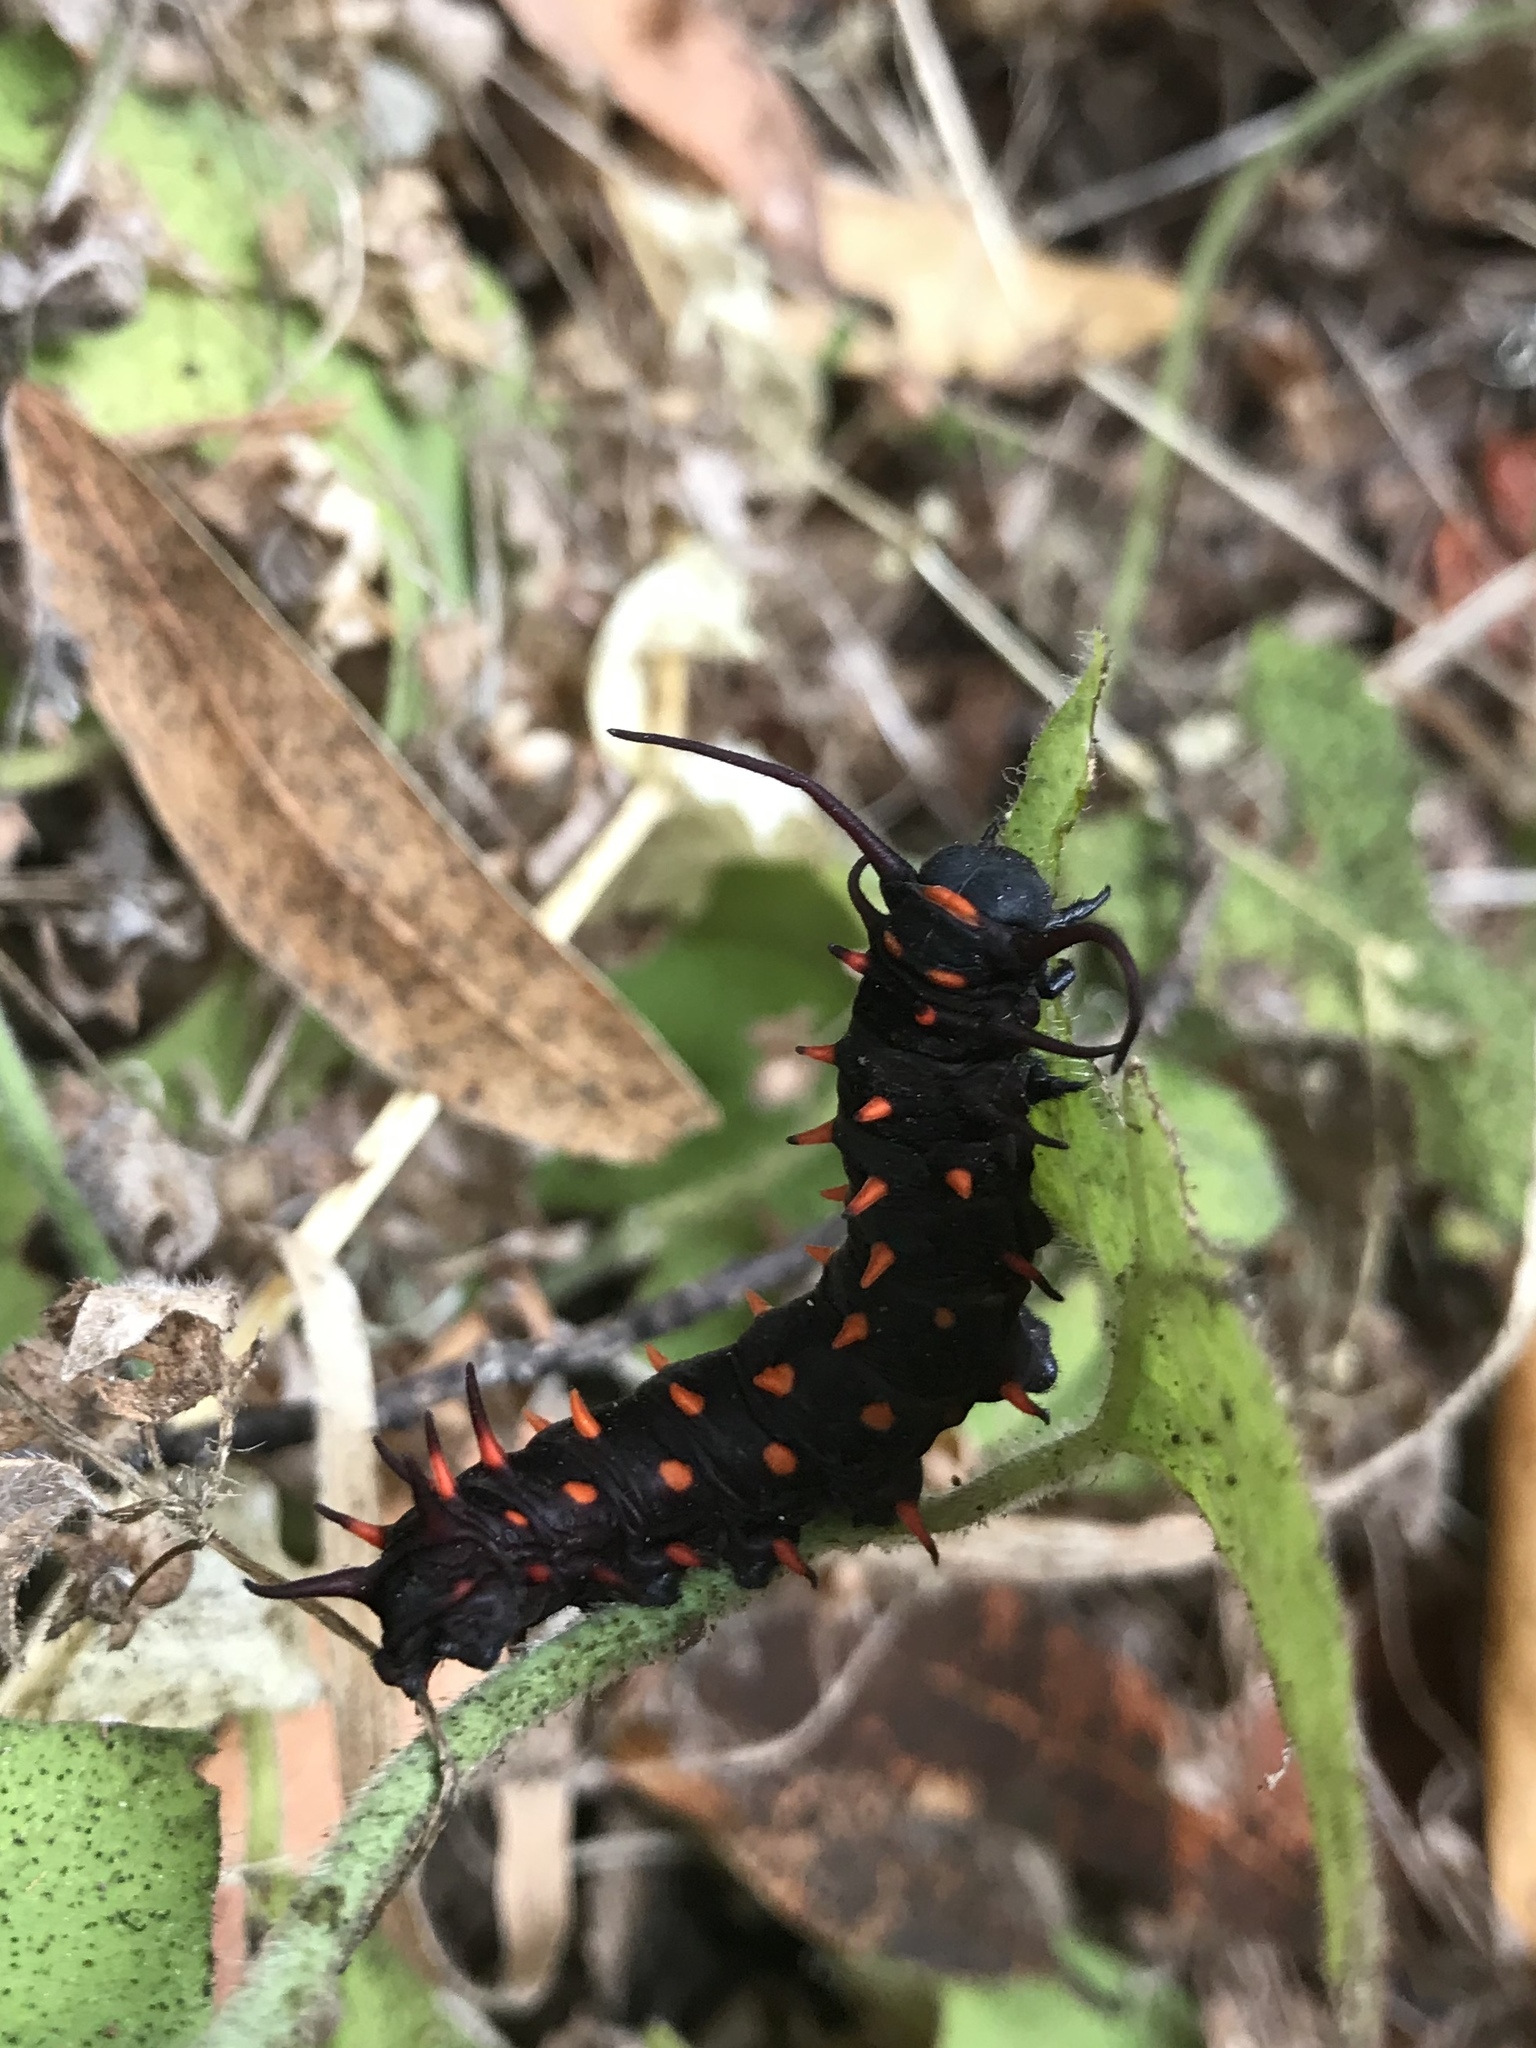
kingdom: Animalia
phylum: Arthropoda
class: Insecta
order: Lepidoptera
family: Papilionidae
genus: Battus
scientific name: Battus philenor
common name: Pipevine swallowtail
